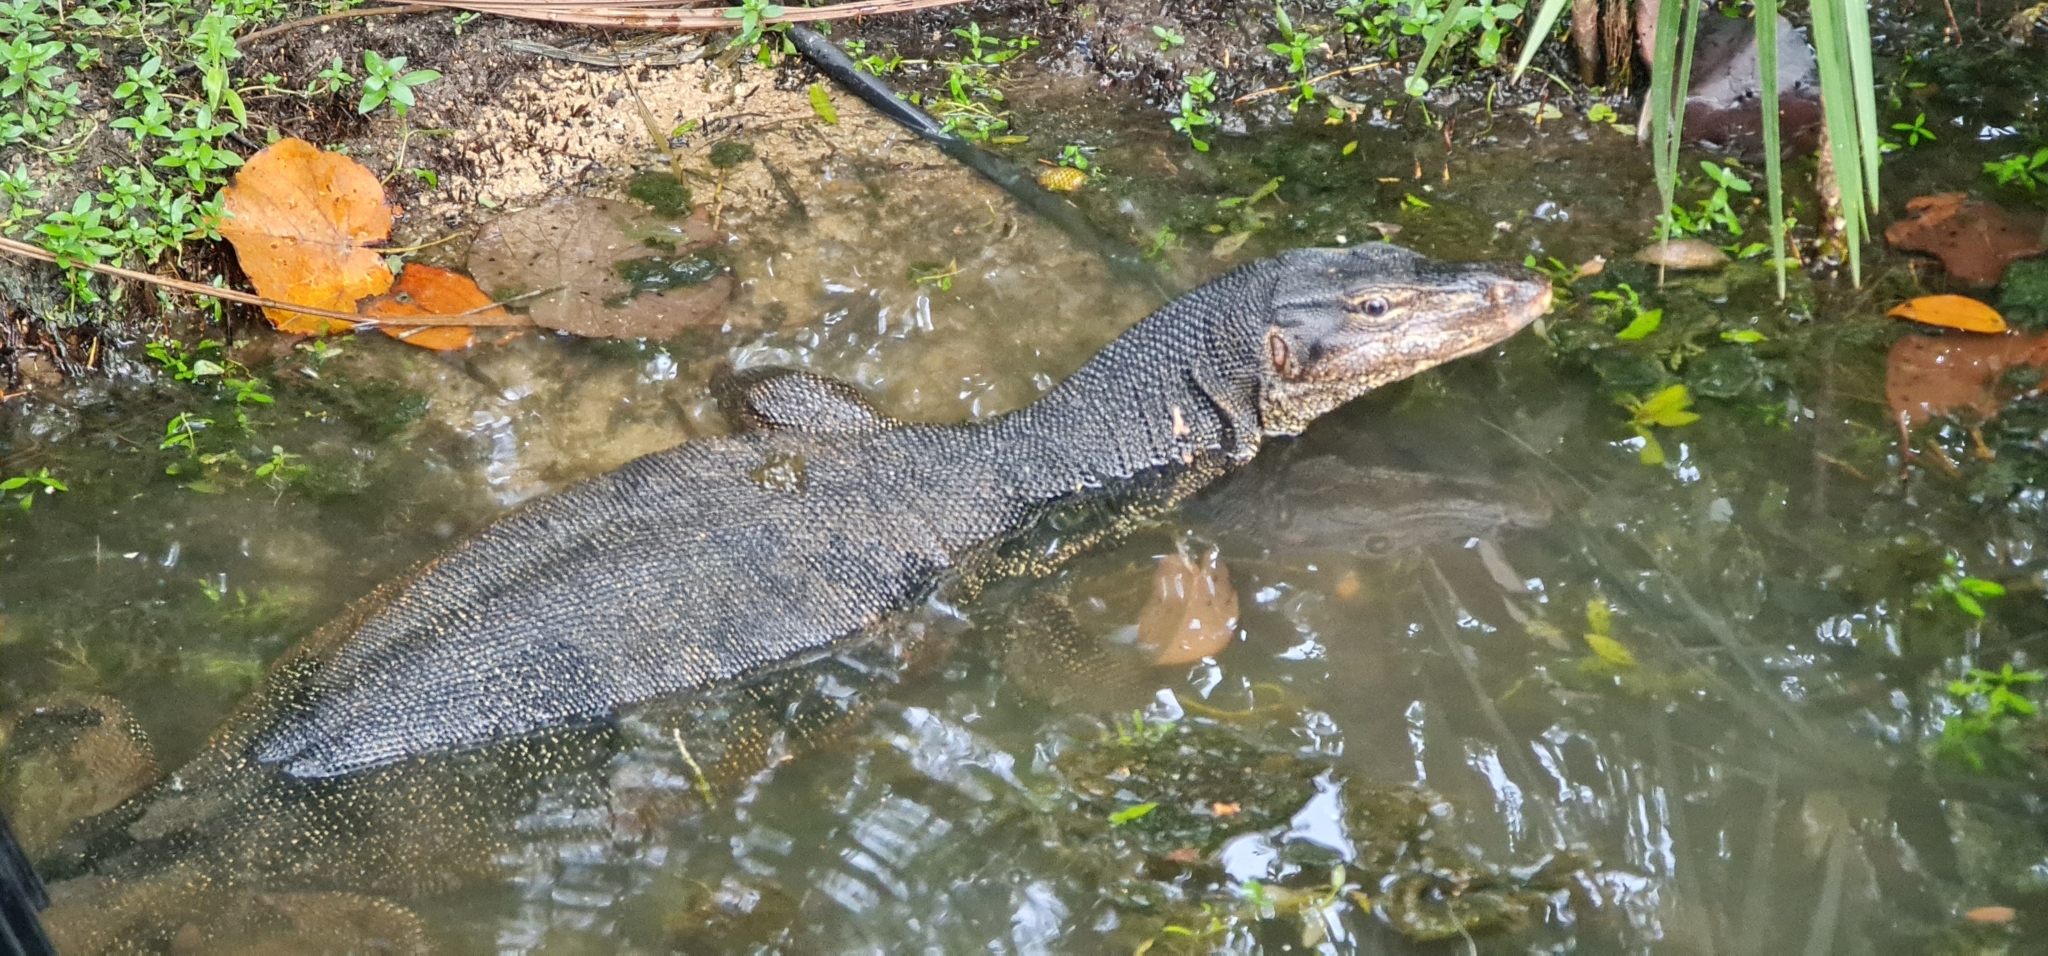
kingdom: Animalia
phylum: Chordata
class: Squamata
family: Varanidae
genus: Varanus
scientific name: Varanus salvator
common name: Common water monitor
